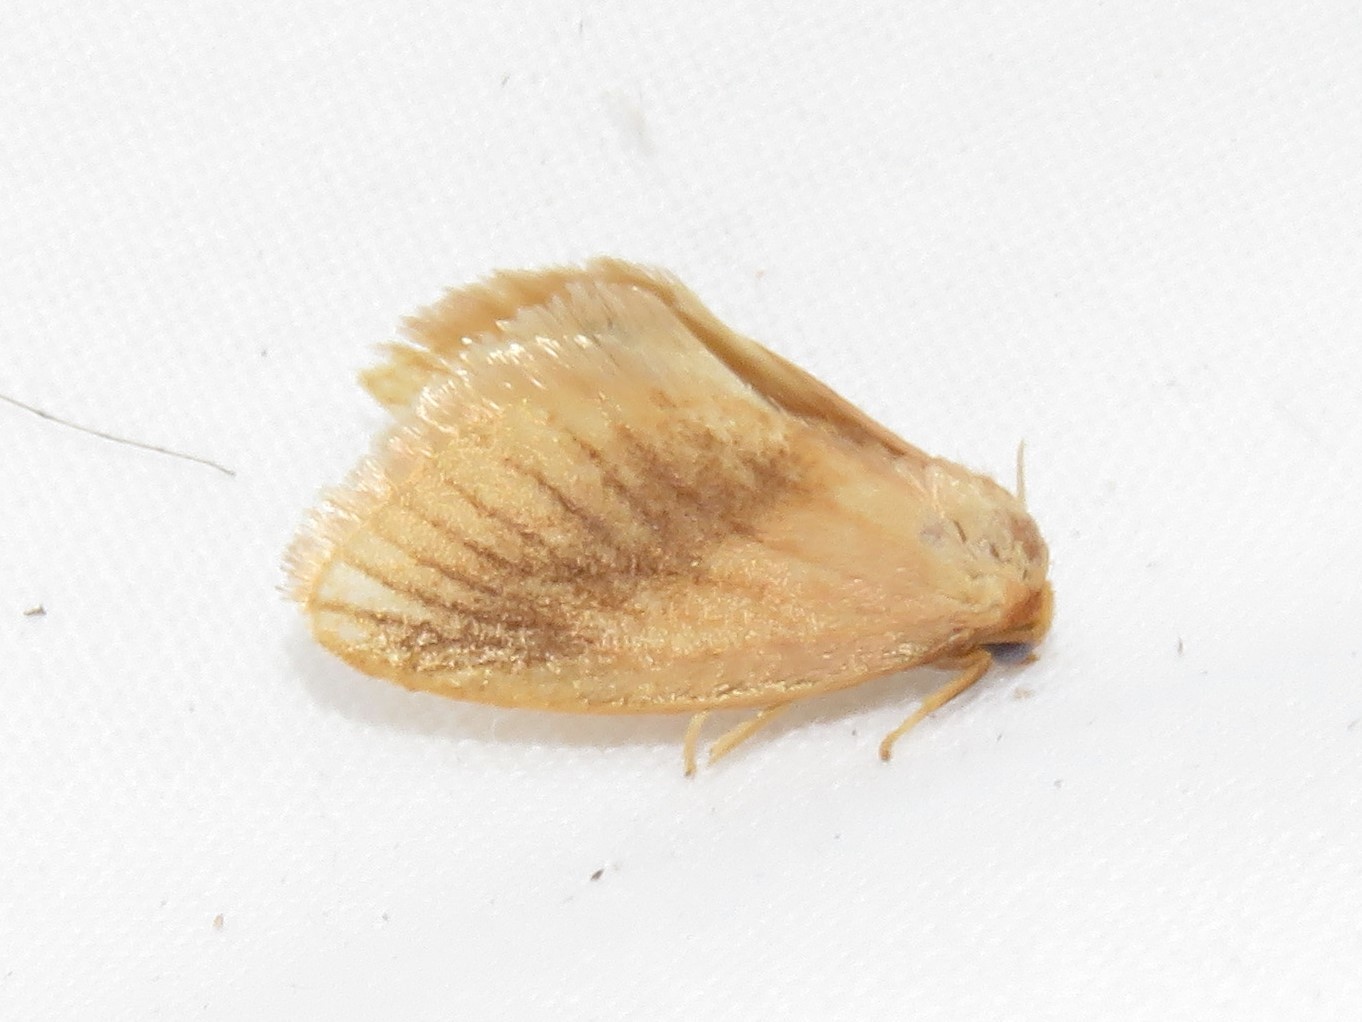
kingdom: Animalia
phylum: Arthropoda
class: Insecta
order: Lepidoptera
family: Limacodidae
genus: Tortricidia
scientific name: Tortricidia testacea
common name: Early button slug moth
